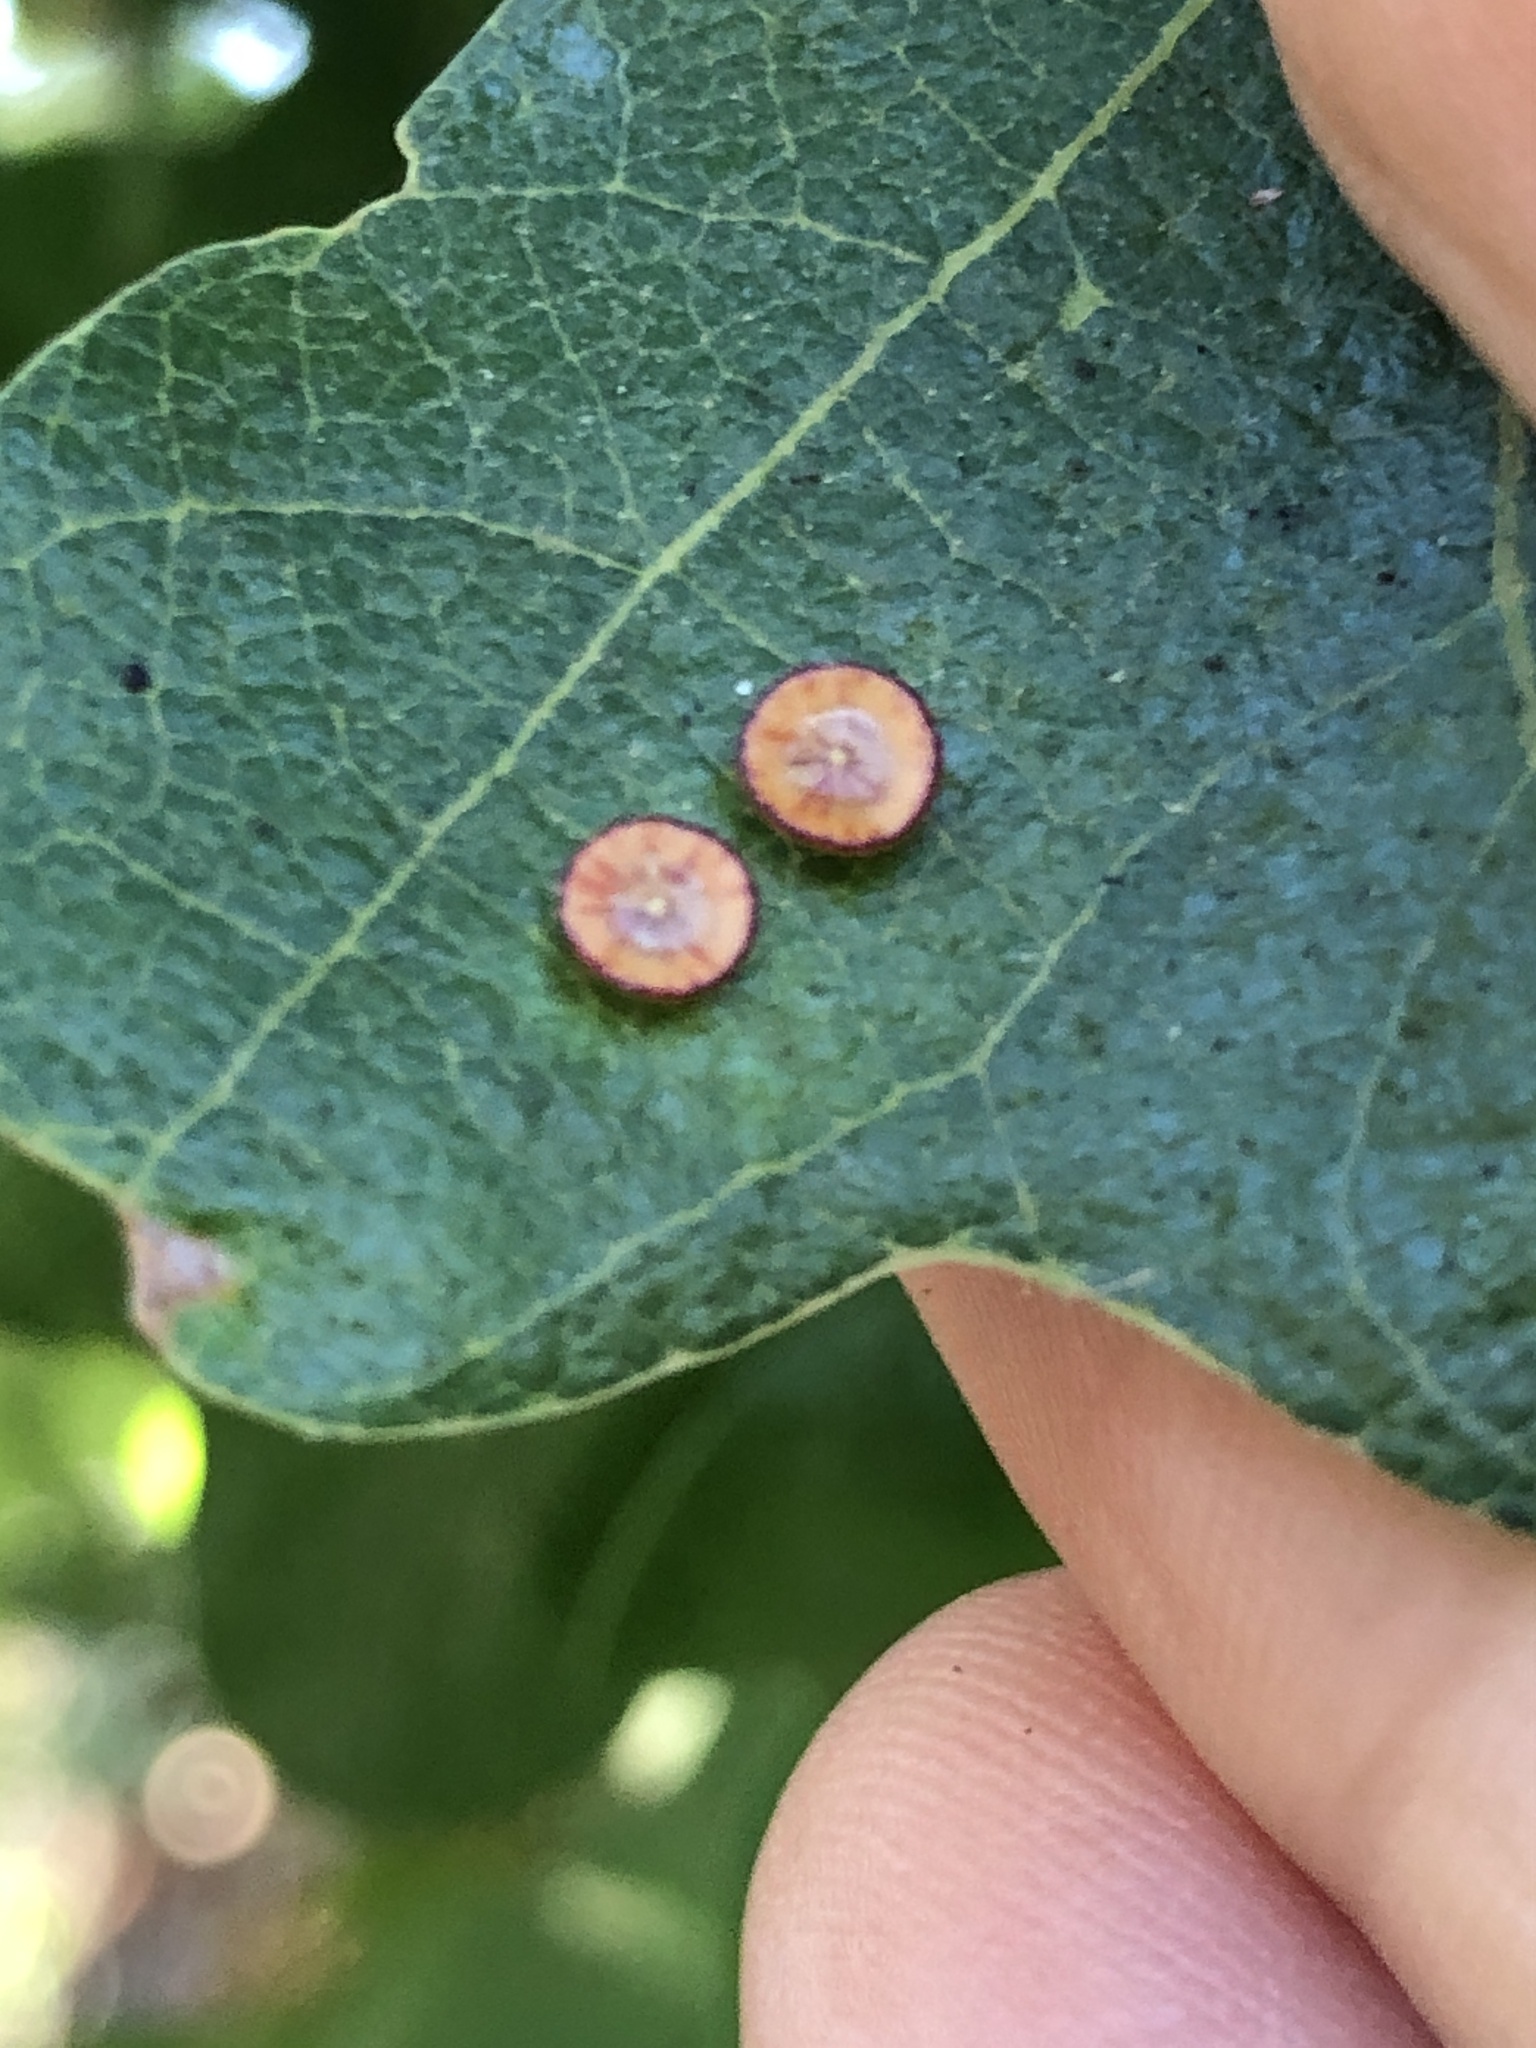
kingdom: Animalia
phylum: Arthropoda
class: Insecta
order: Hymenoptera
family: Cynipidae
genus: Andricus
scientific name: Andricus
